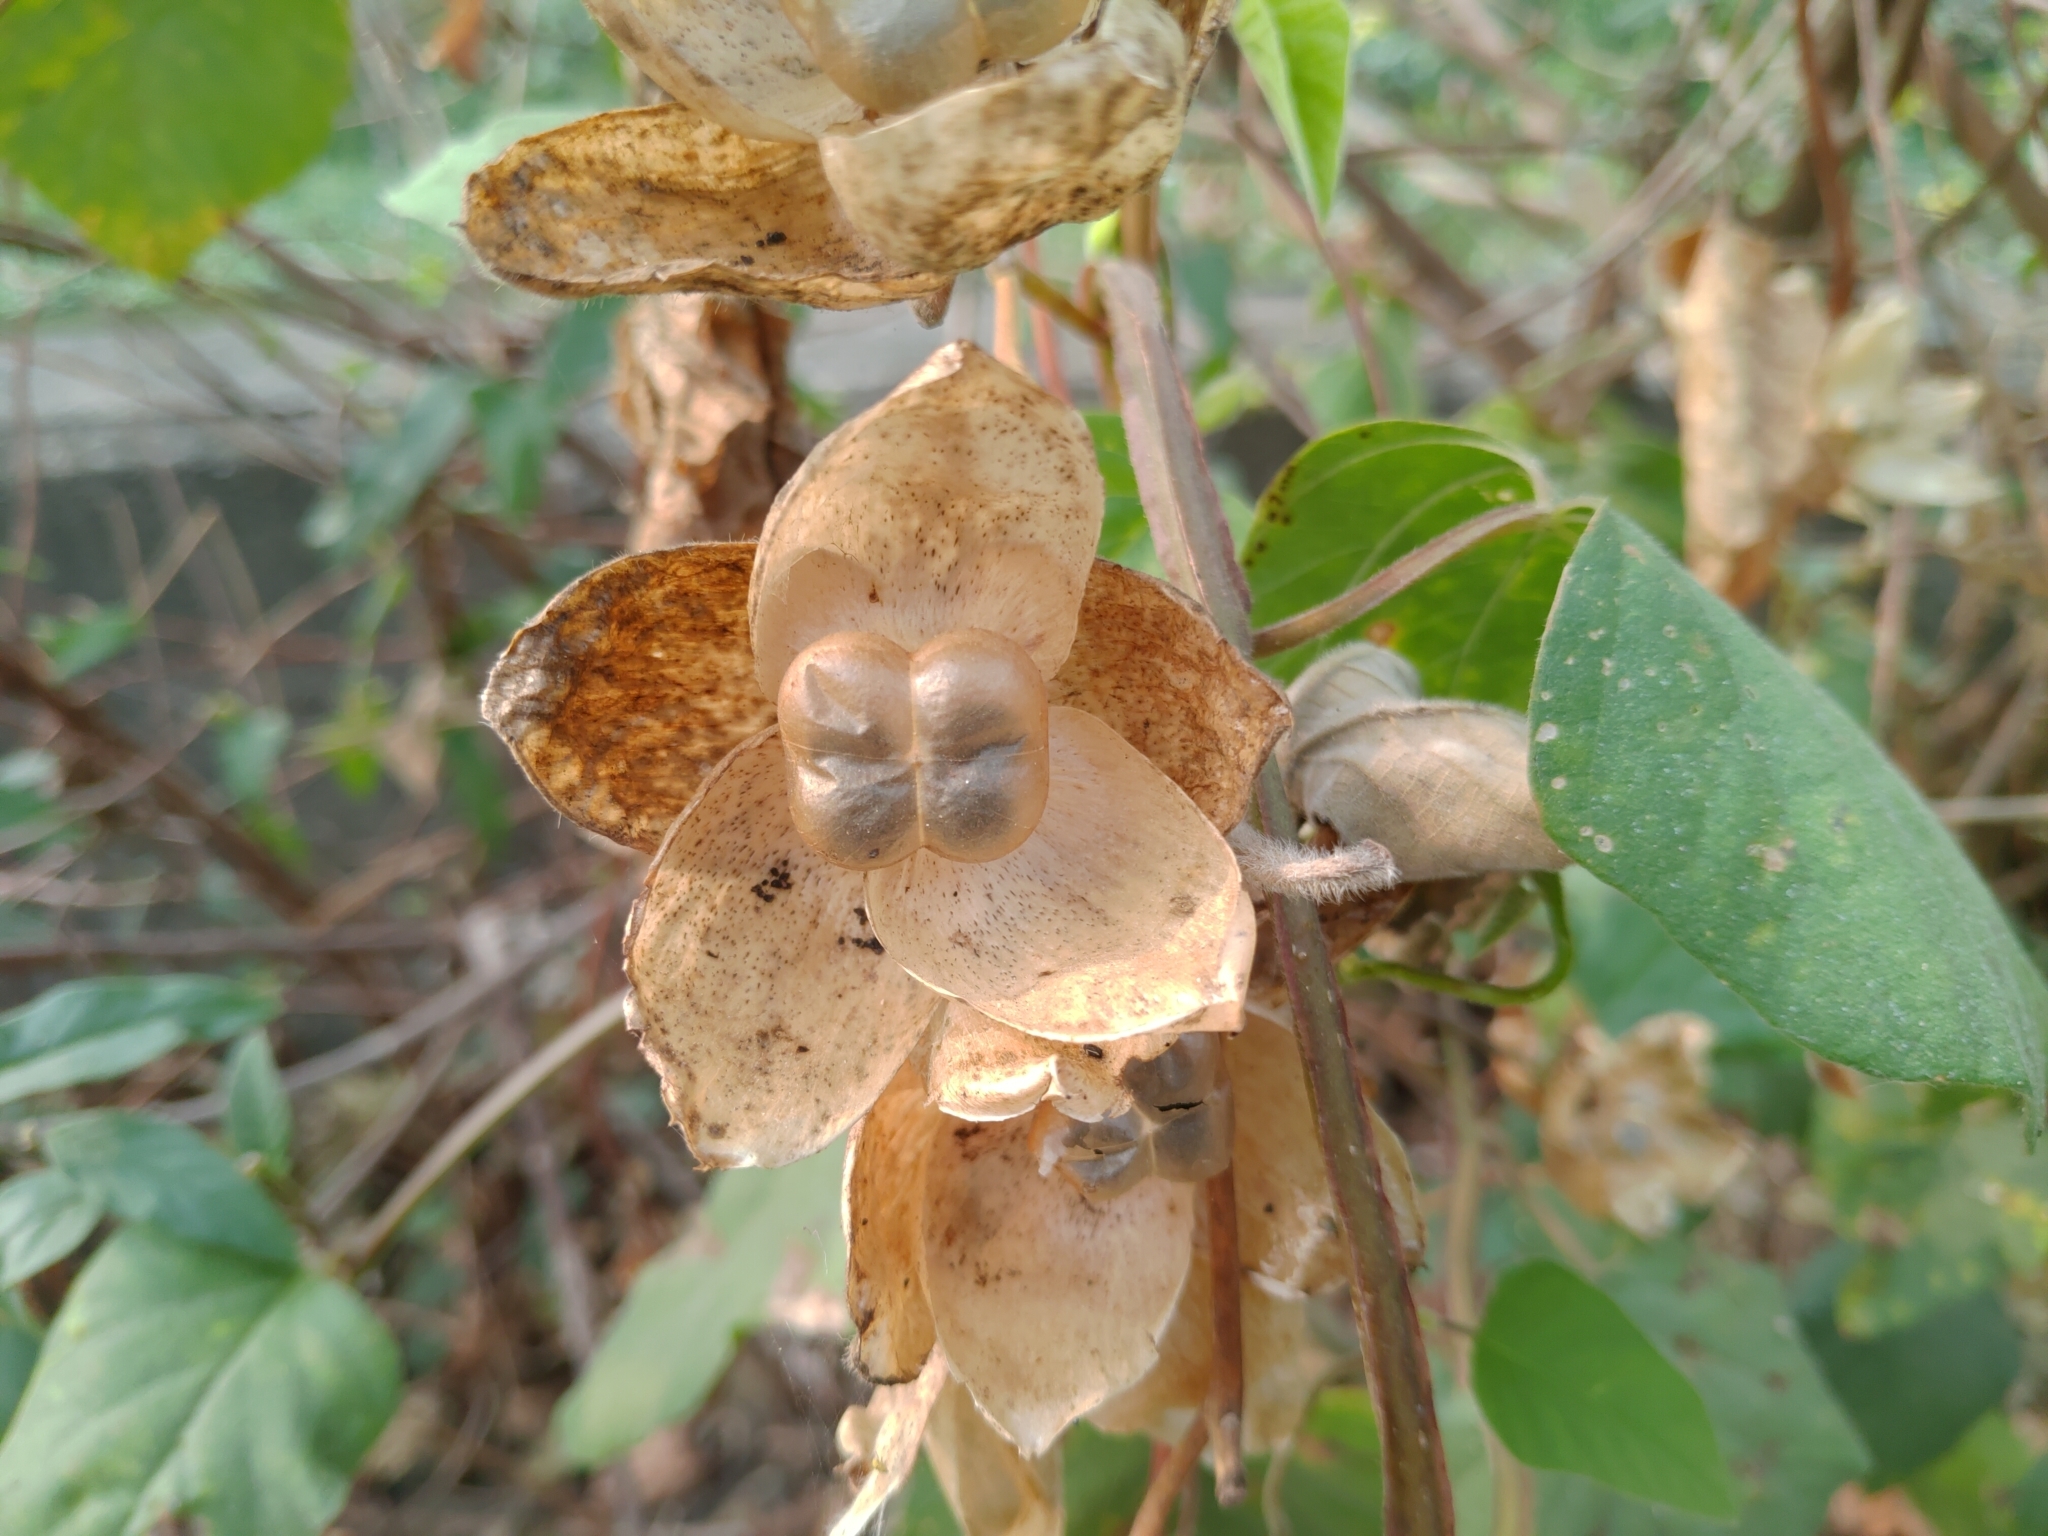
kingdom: Plantae
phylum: Tracheophyta
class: Magnoliopsida
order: Solanales
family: Convolvulaceae
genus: Operculina
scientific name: Operculina turpethum
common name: Transparent wood-rose
